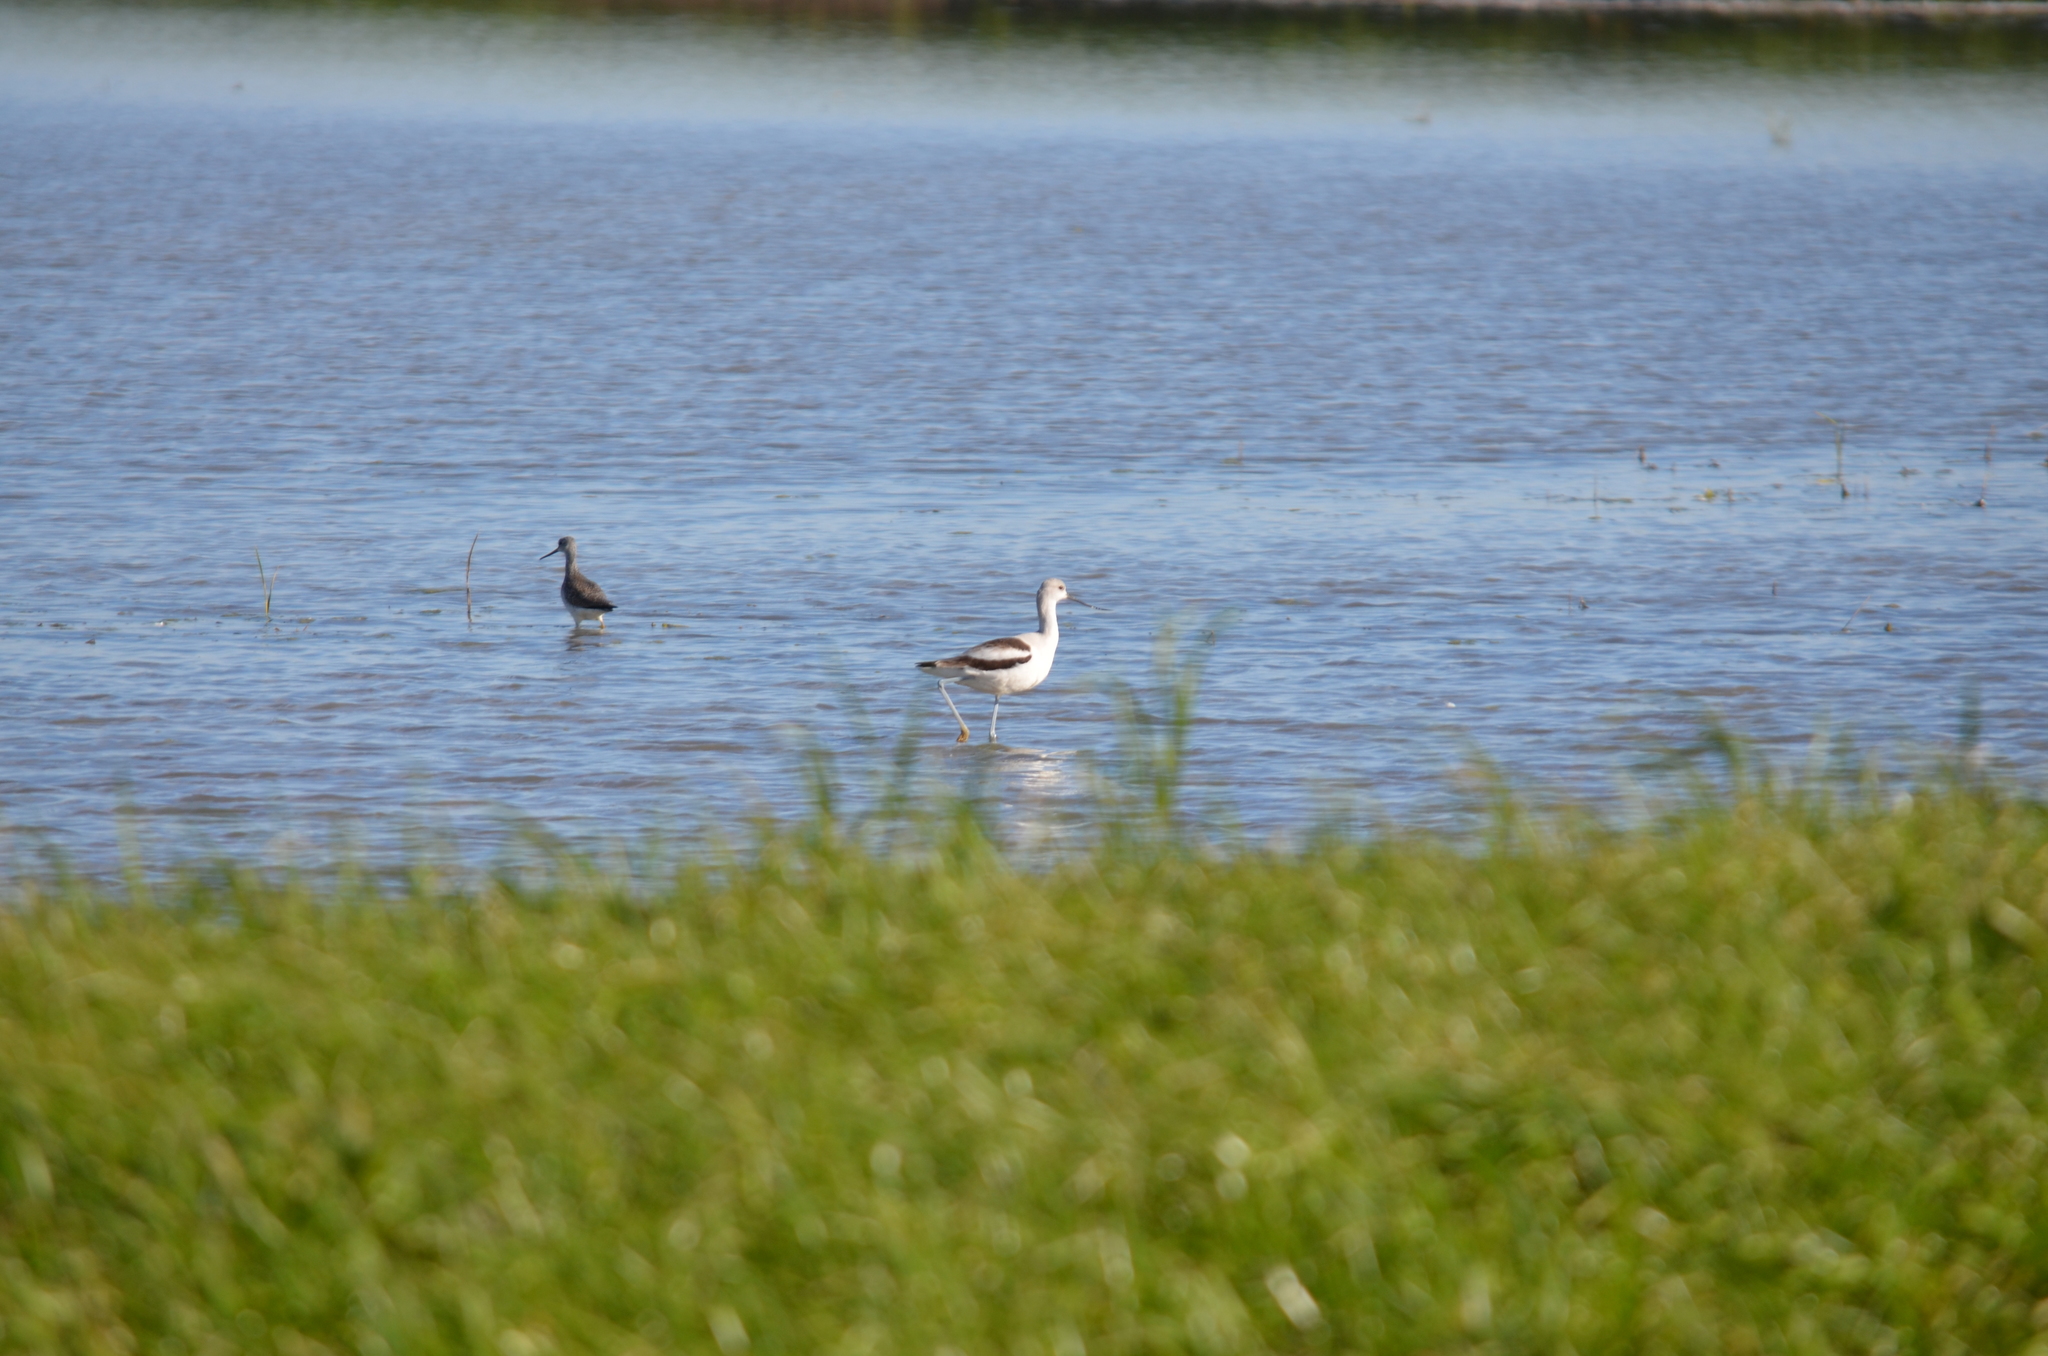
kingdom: Animalia
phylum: Chordata
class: Aves
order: Charadriiformes
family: Recurvirostridae
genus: Recurvirostra
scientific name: Recurvirostra americana
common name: American avocet
